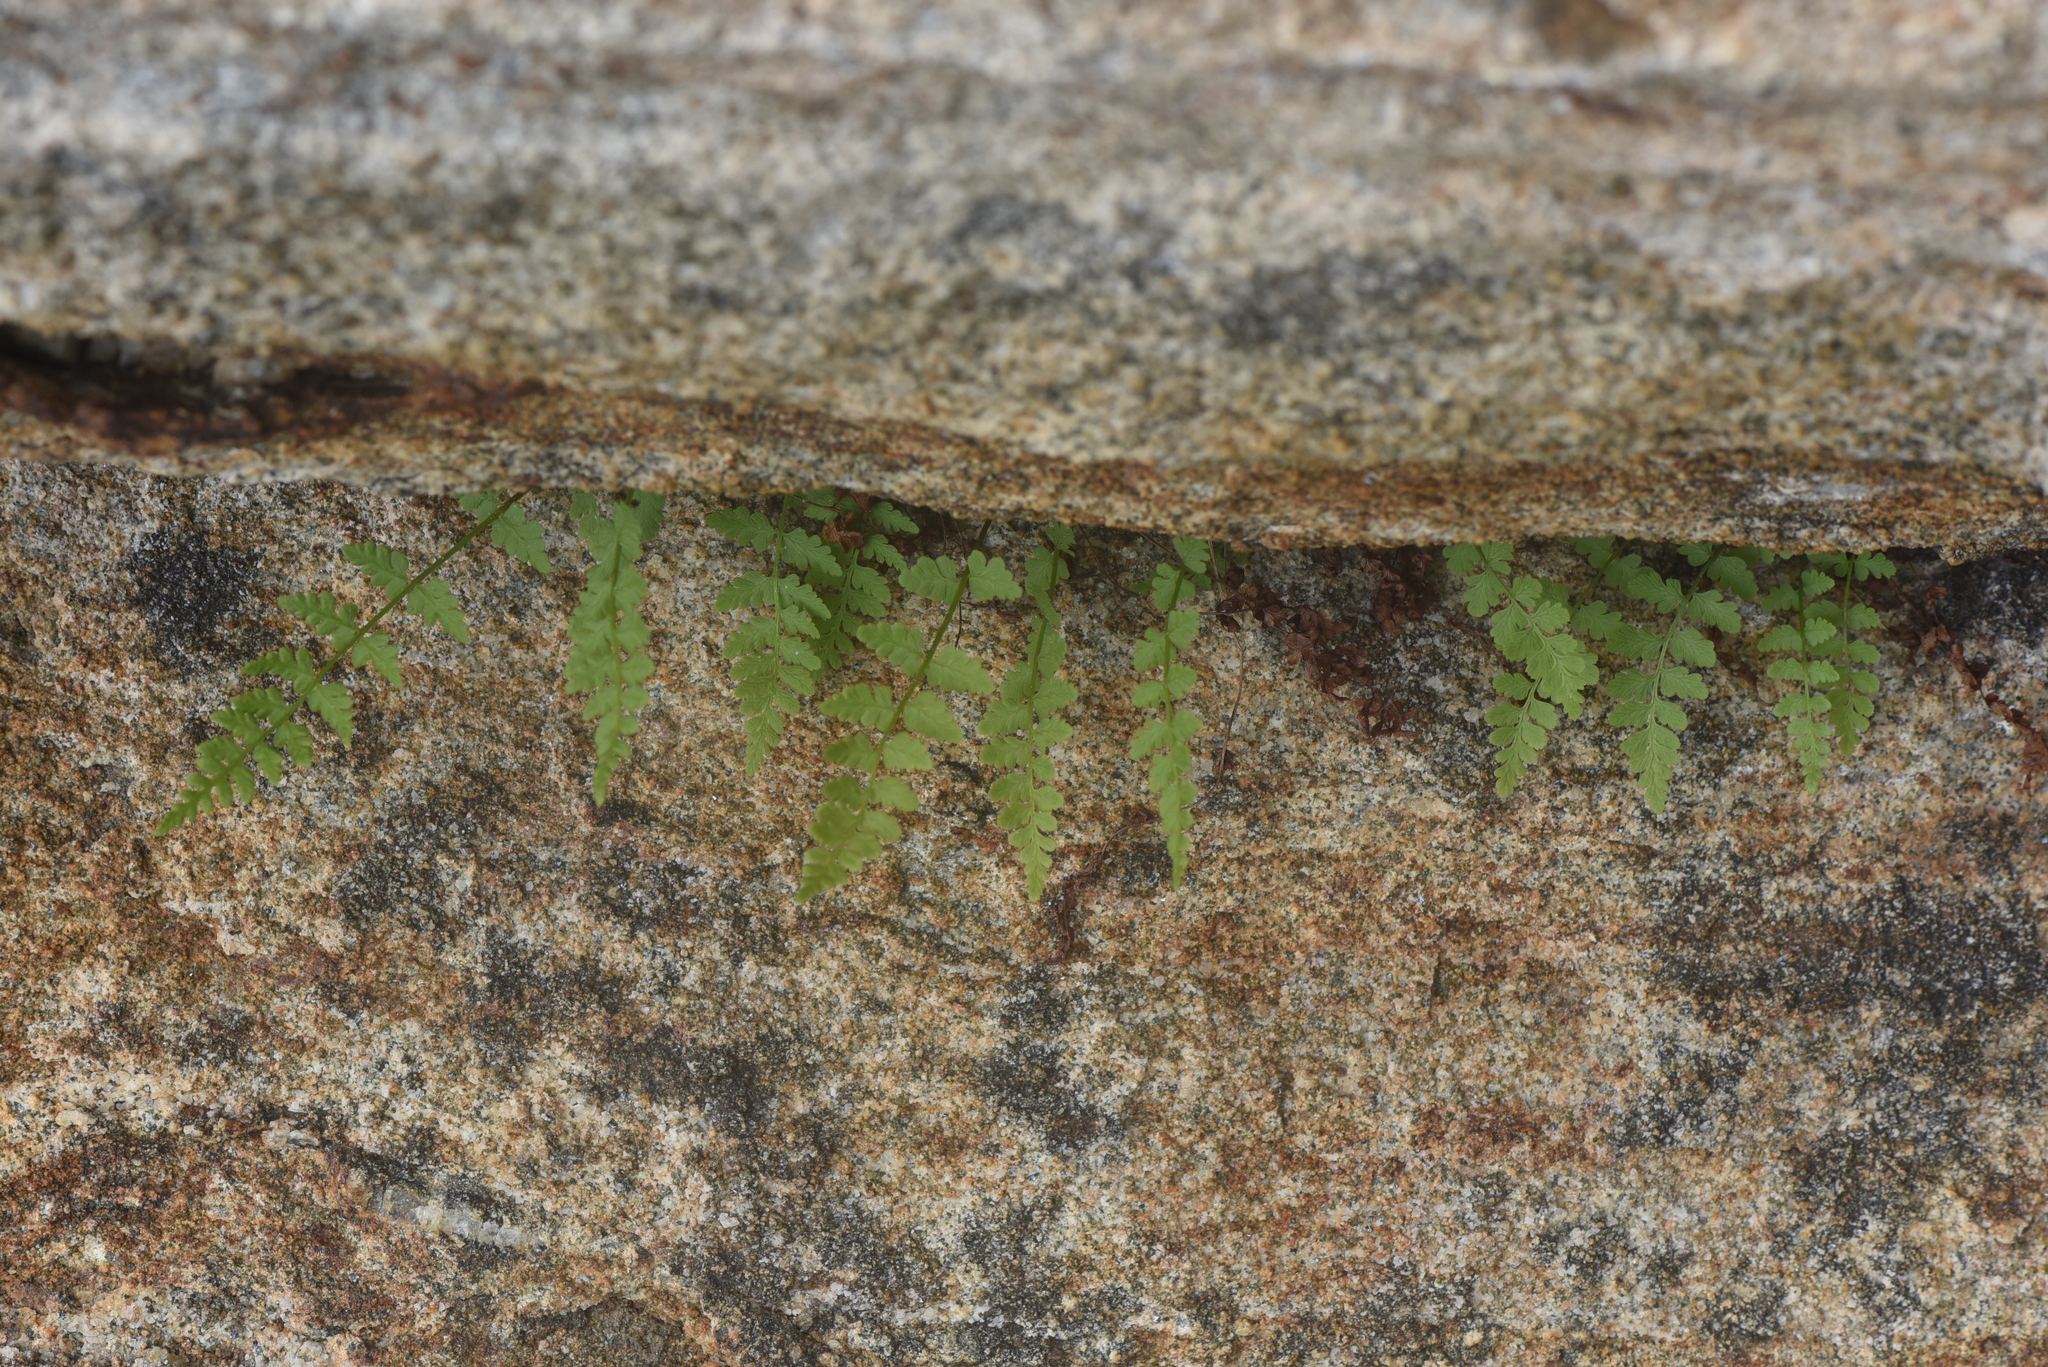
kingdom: Plantae
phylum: Tracheophyta
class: Polypodiopsida
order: Polypodiales
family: Cystopteridaceae
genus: Cystopteris
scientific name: Cystopteris fragilis
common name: Brittle bladder fern
